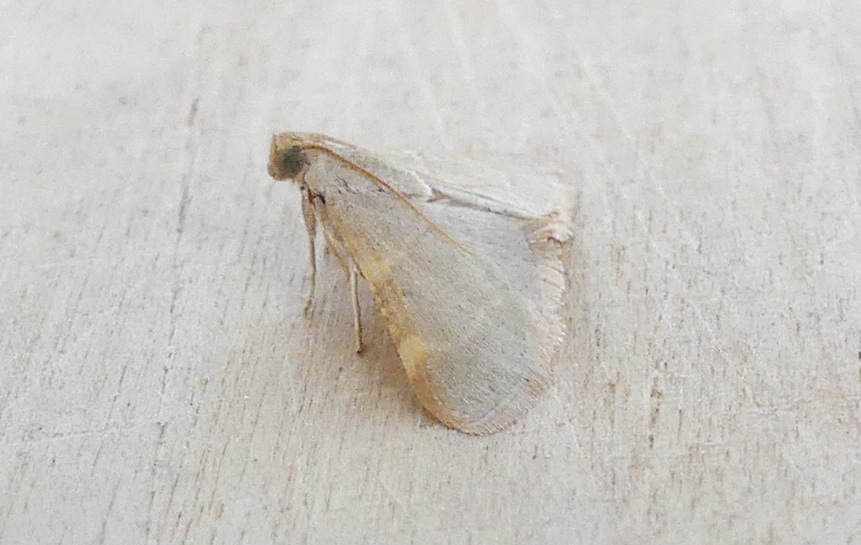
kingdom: Animalia
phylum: Arthropoda
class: Insecta
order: Lepidoptera
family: Pyralidae
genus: Hypsopygia
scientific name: Hypsopygia binodulalis
